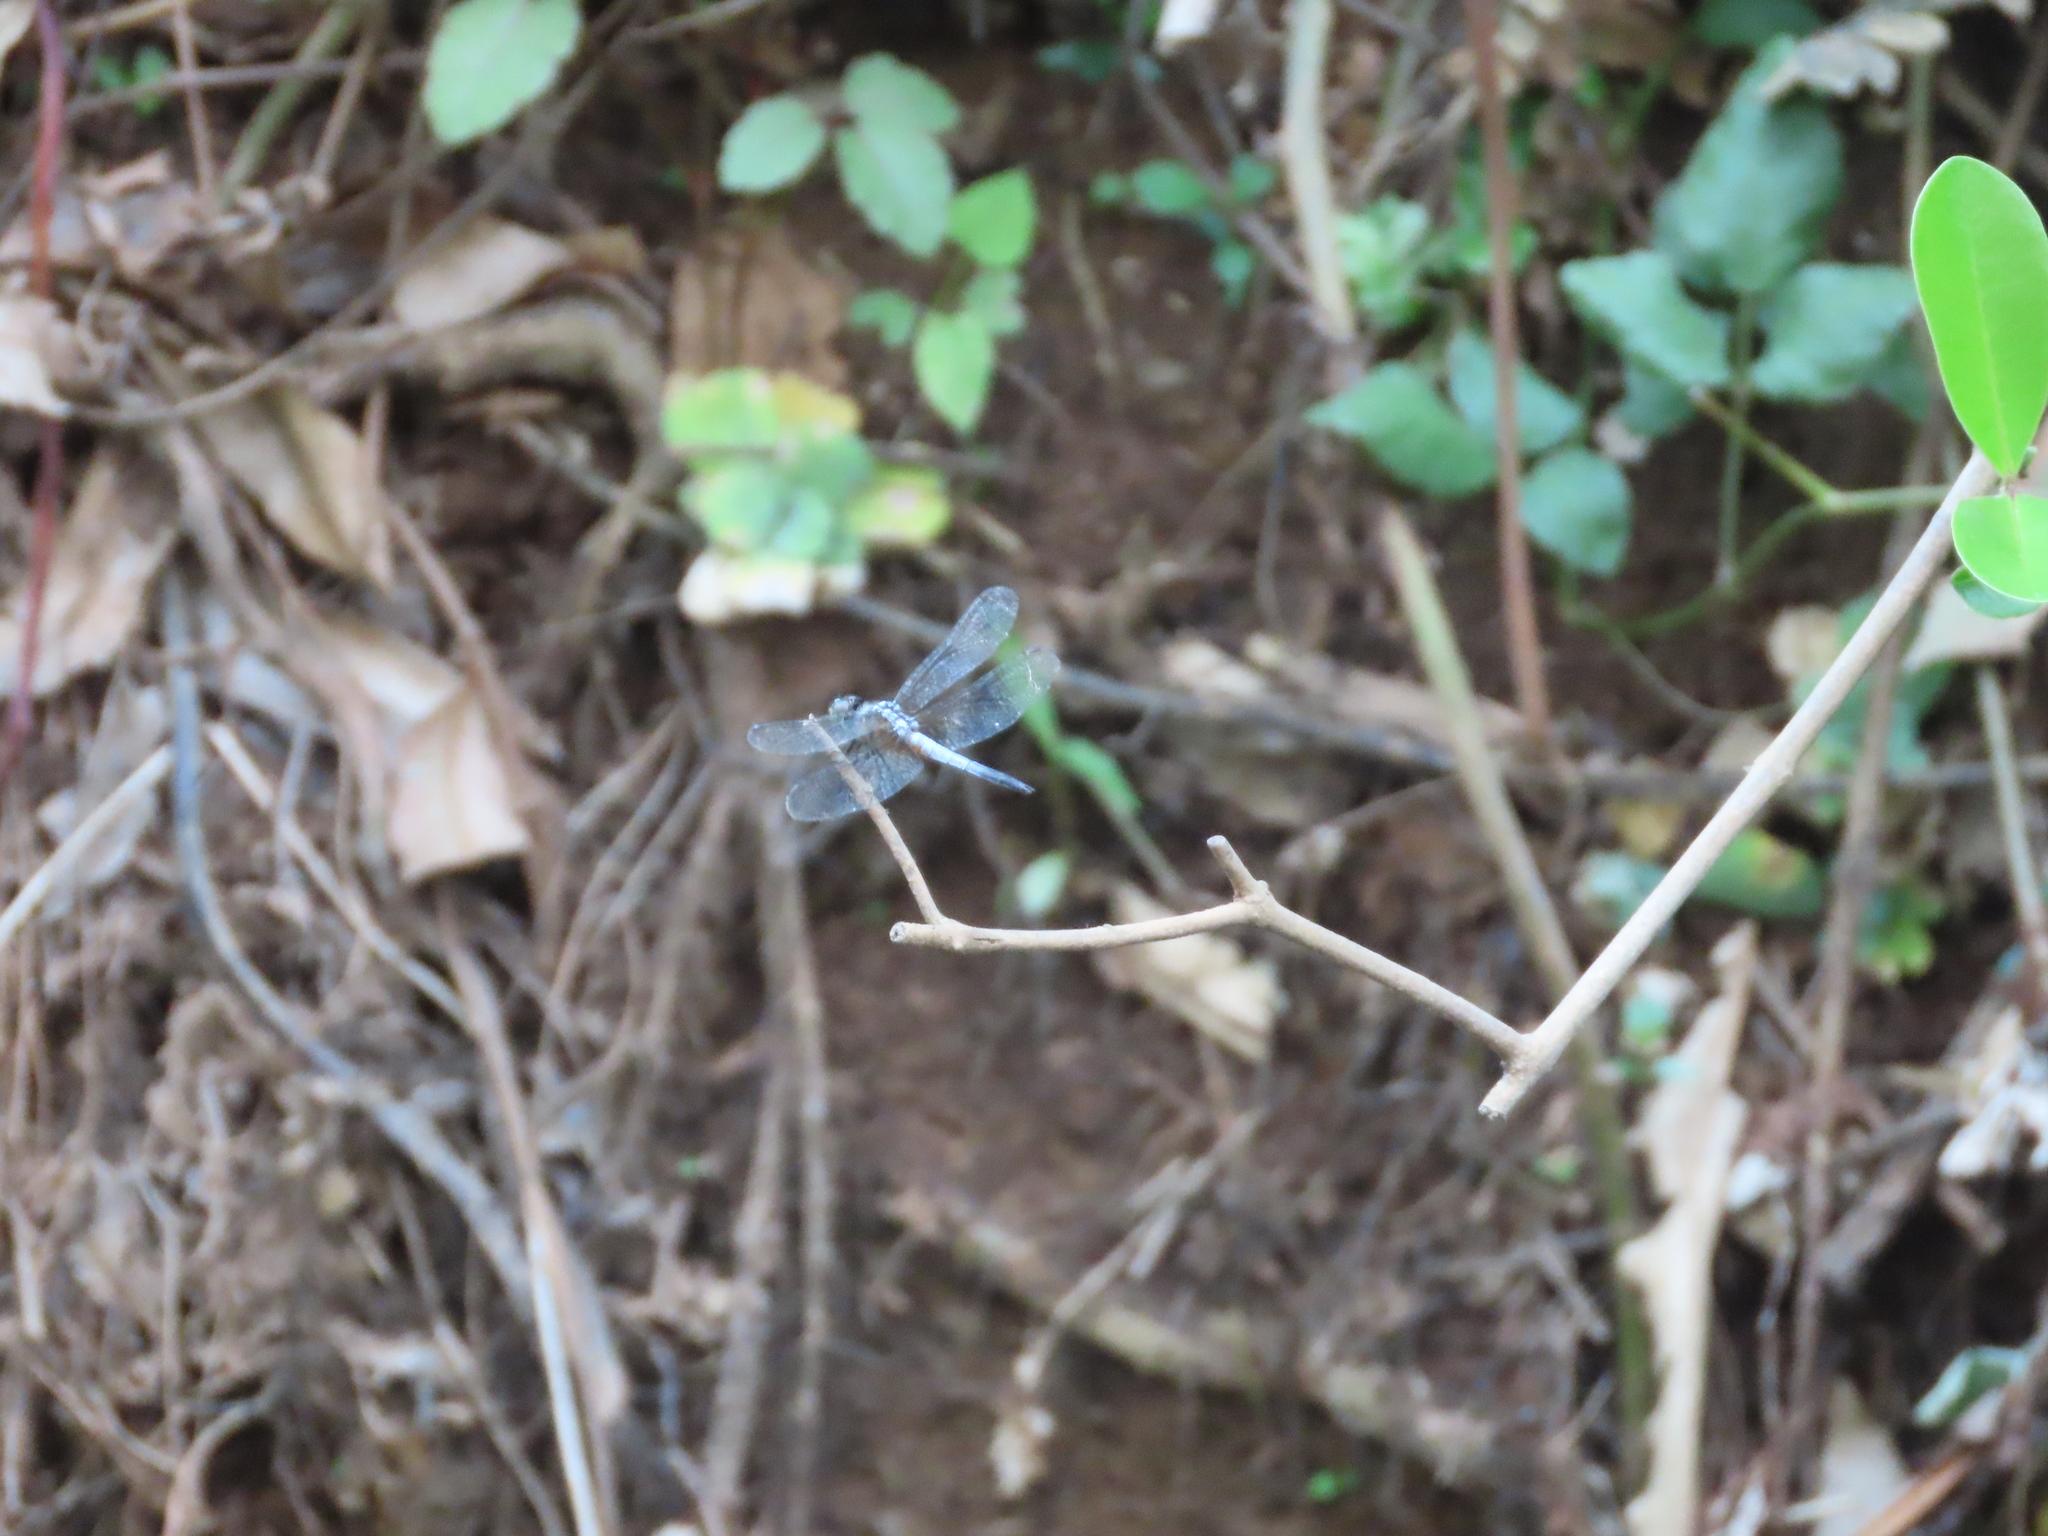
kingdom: Animalia
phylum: Arthropoda
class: Insecta
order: Odonata
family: Libellulidae
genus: Brachydiplax
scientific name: Brachydiplax chalybea
